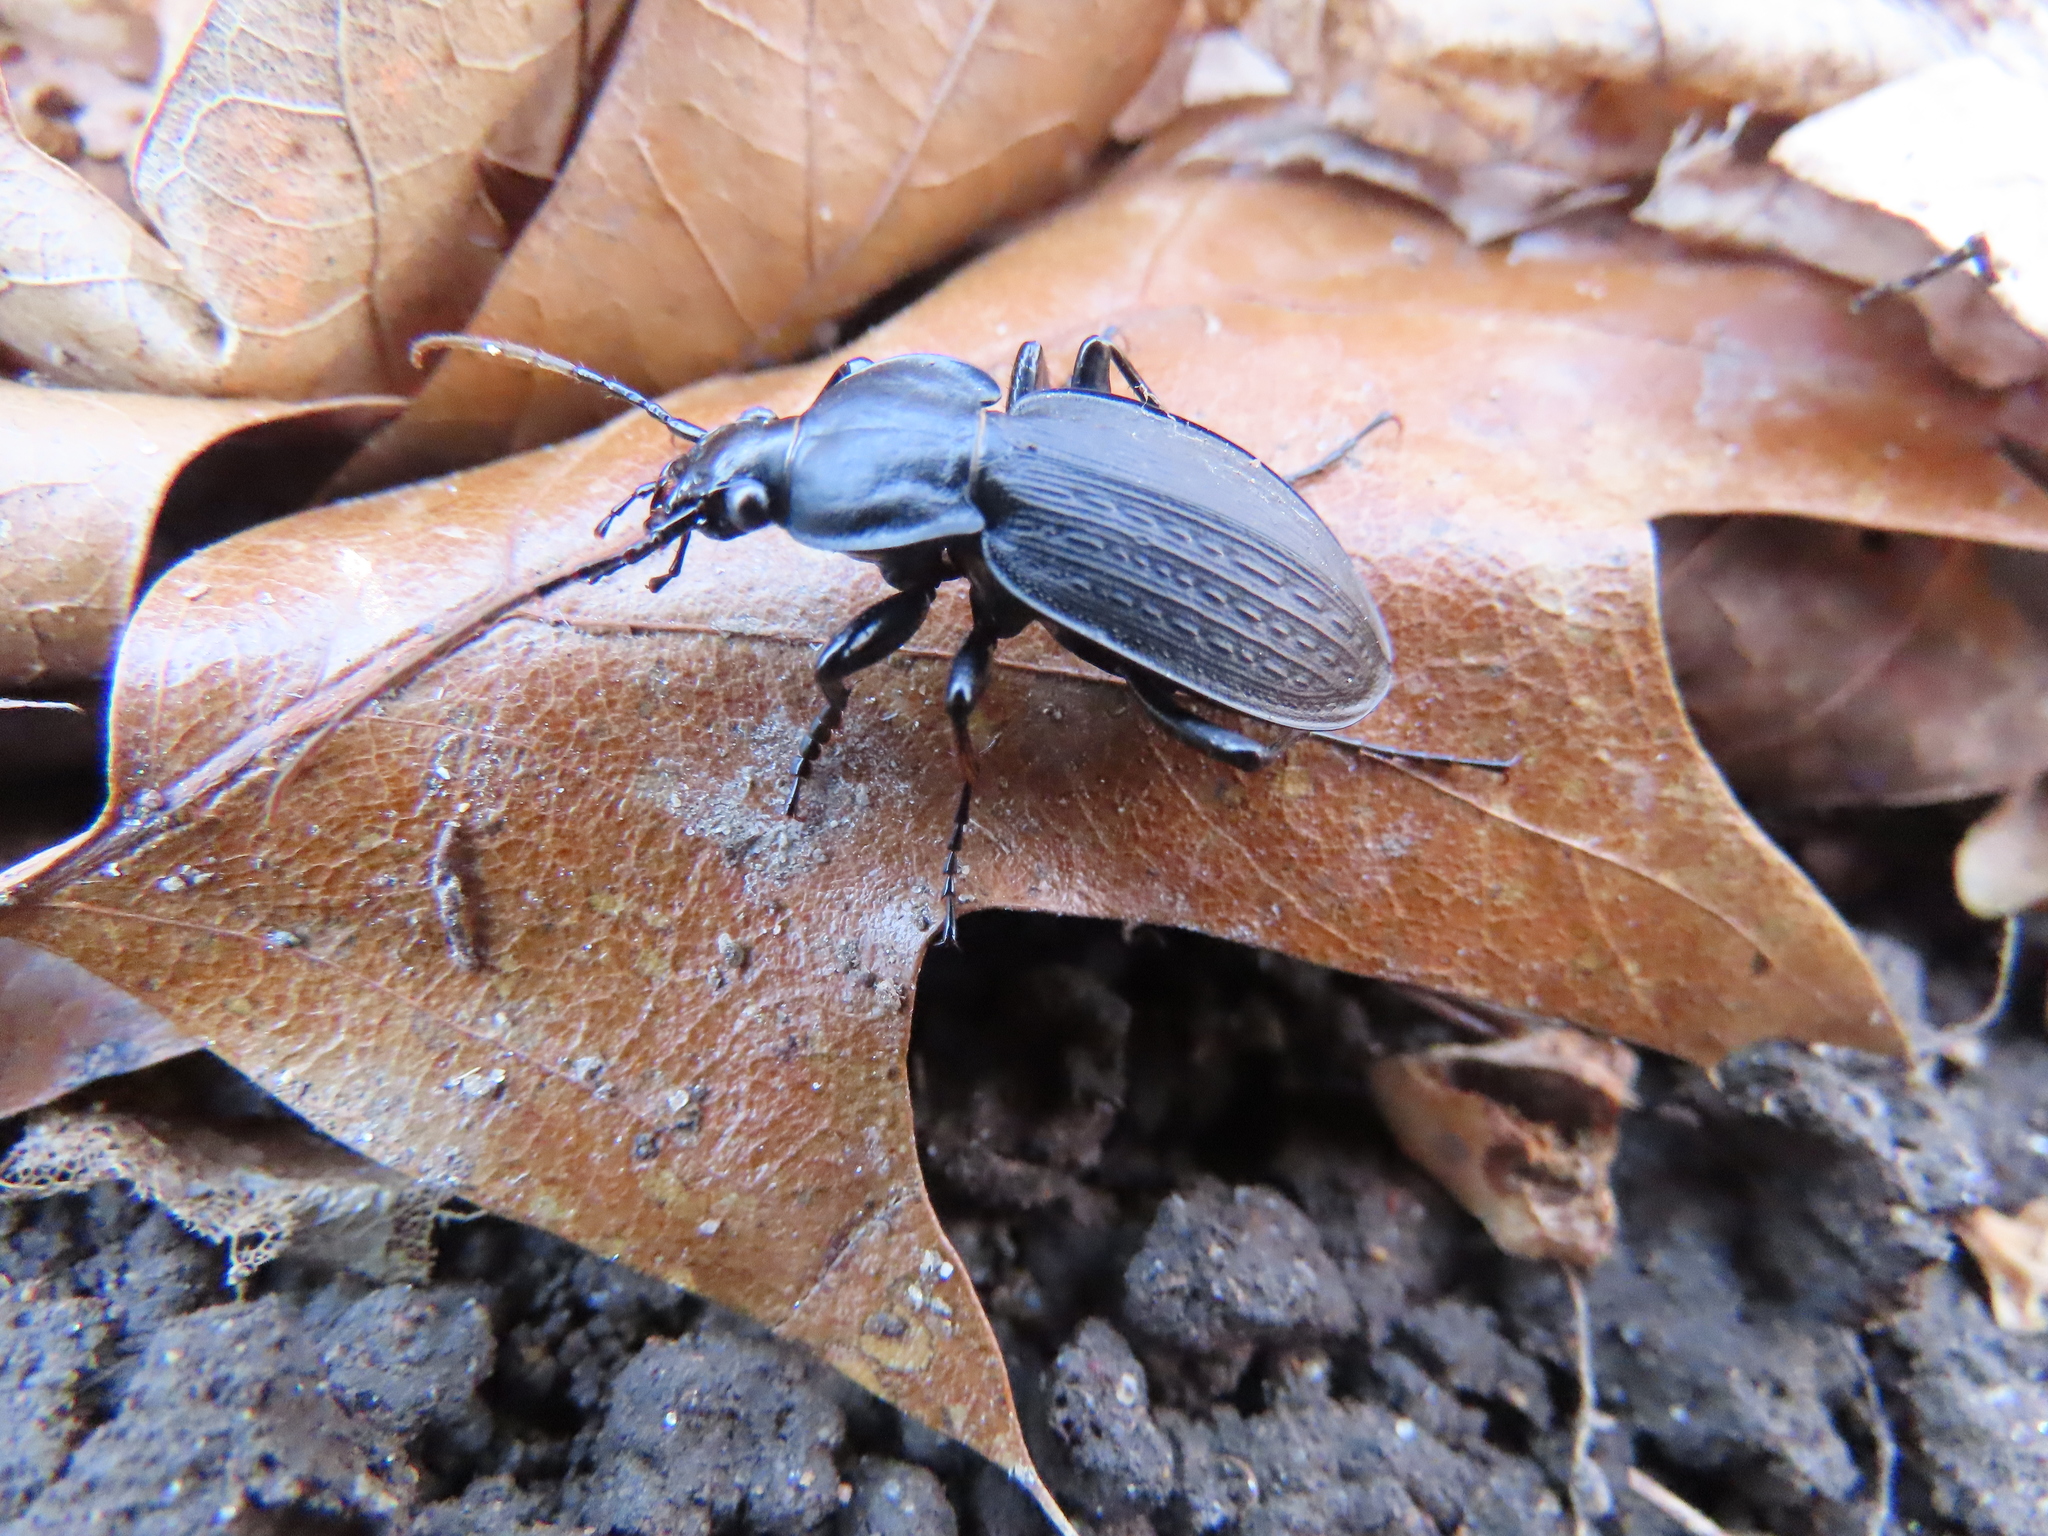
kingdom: Animalia
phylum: Arthropoda
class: Insecta
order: Coleoptera
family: Carabidae
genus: Carabus
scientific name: Carabus vinctus
